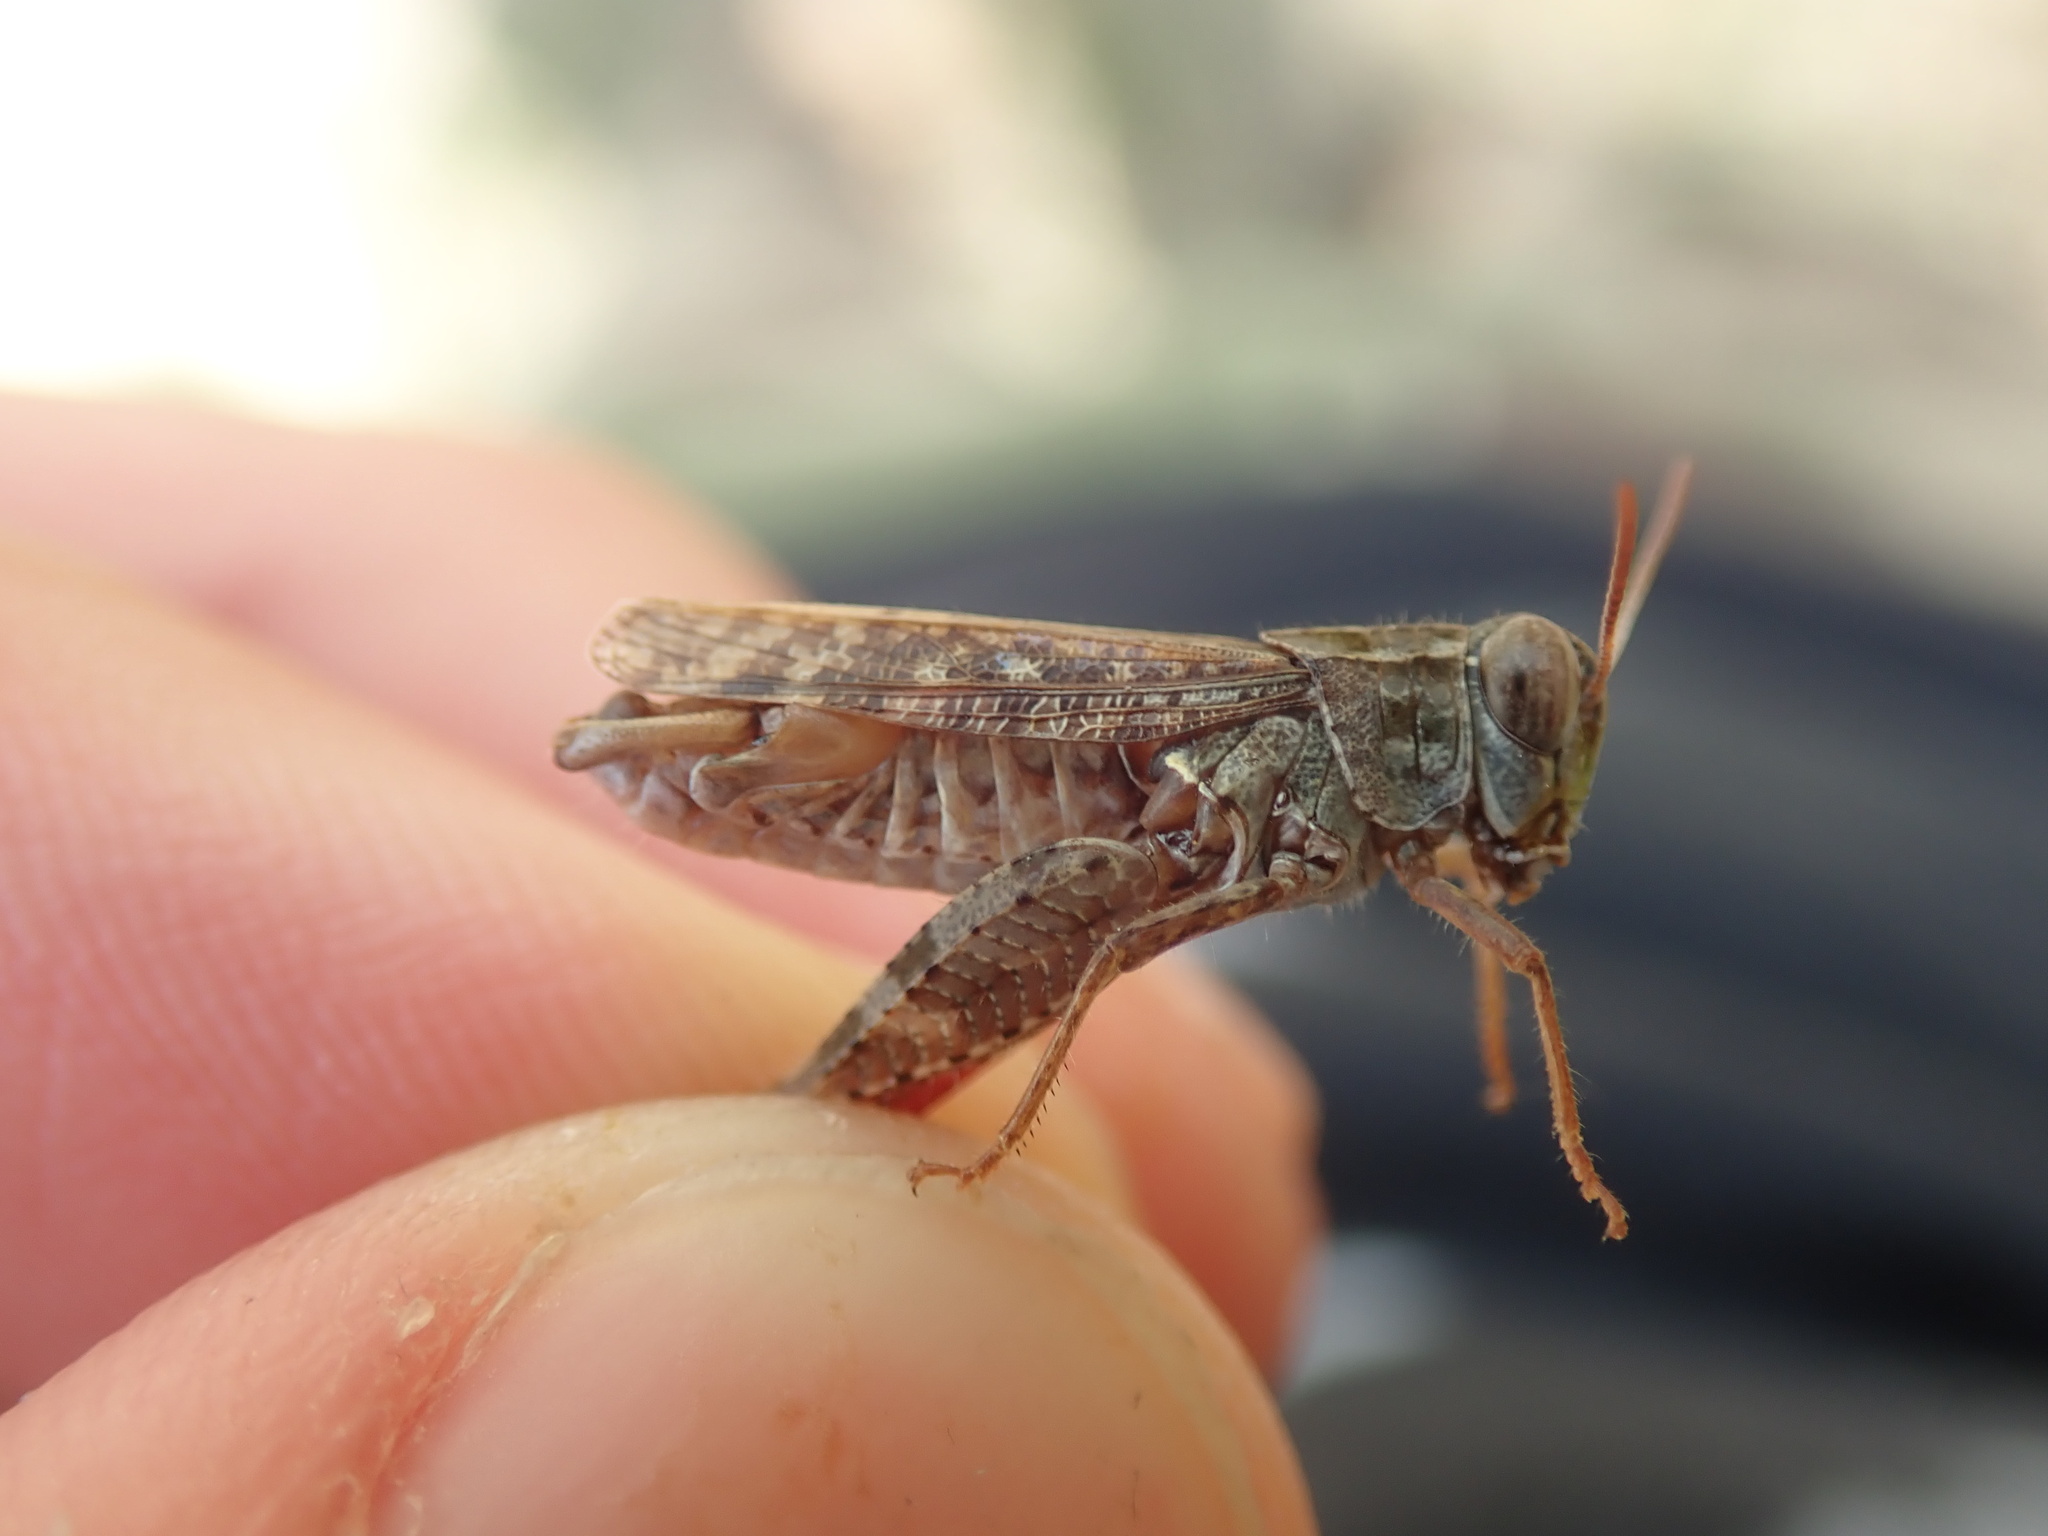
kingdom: Animalia
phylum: Arthropoda
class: Insecta
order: Orthoptera
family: Acrididae
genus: Calliptamus
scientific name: Calliptamus barbarus
